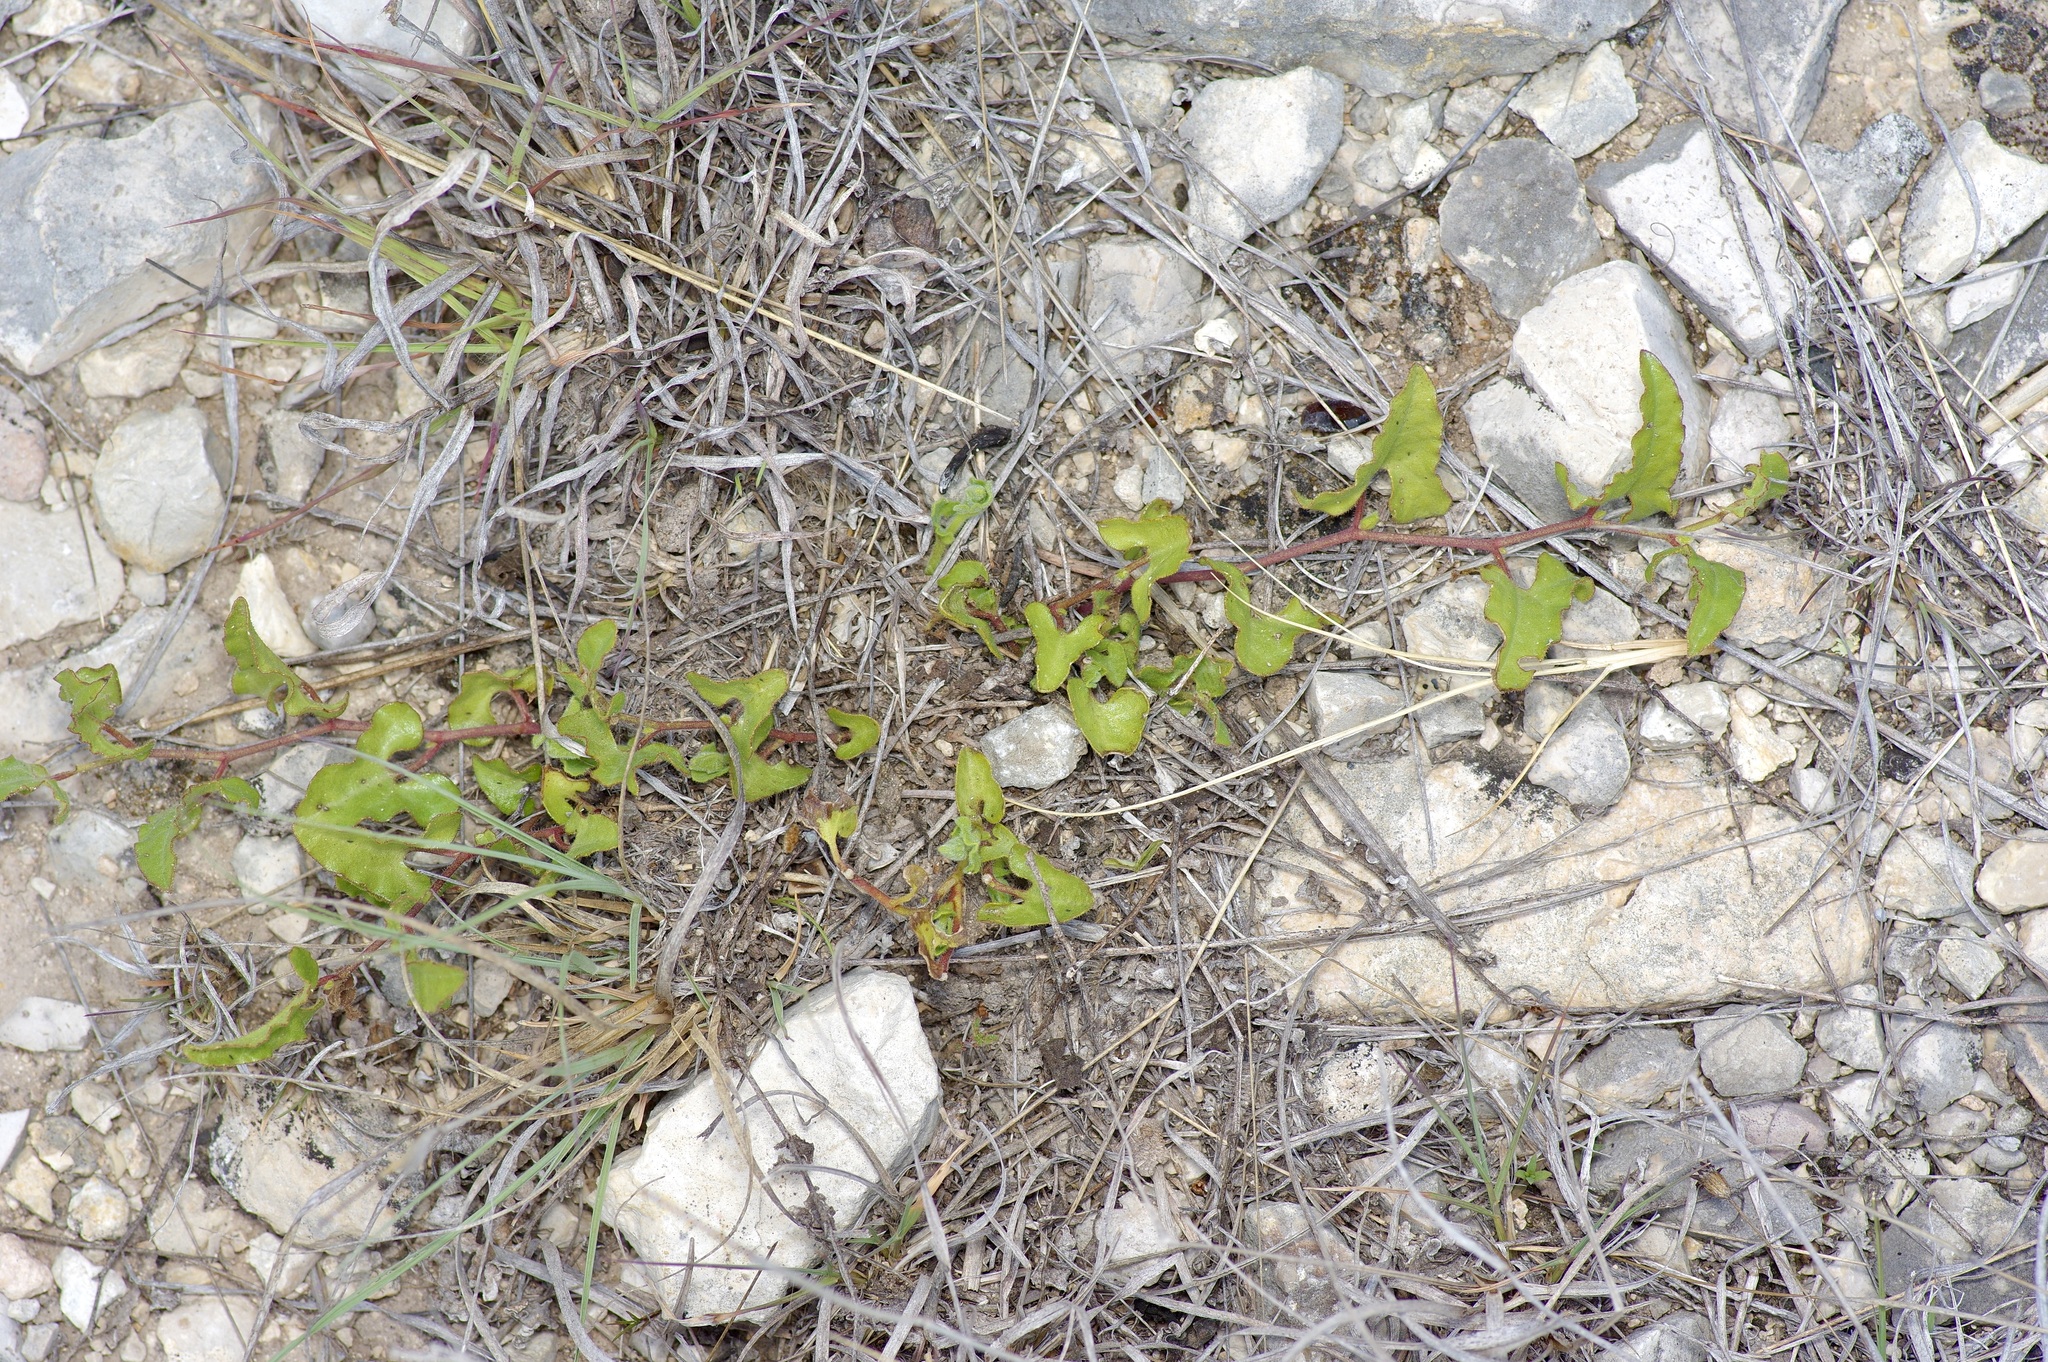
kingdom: Plantae
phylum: Tracheophyta
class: Magnoliopsida
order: Piperales
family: Aristolochiaceae
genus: Aristolochia
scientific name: Aristolochia coryi
